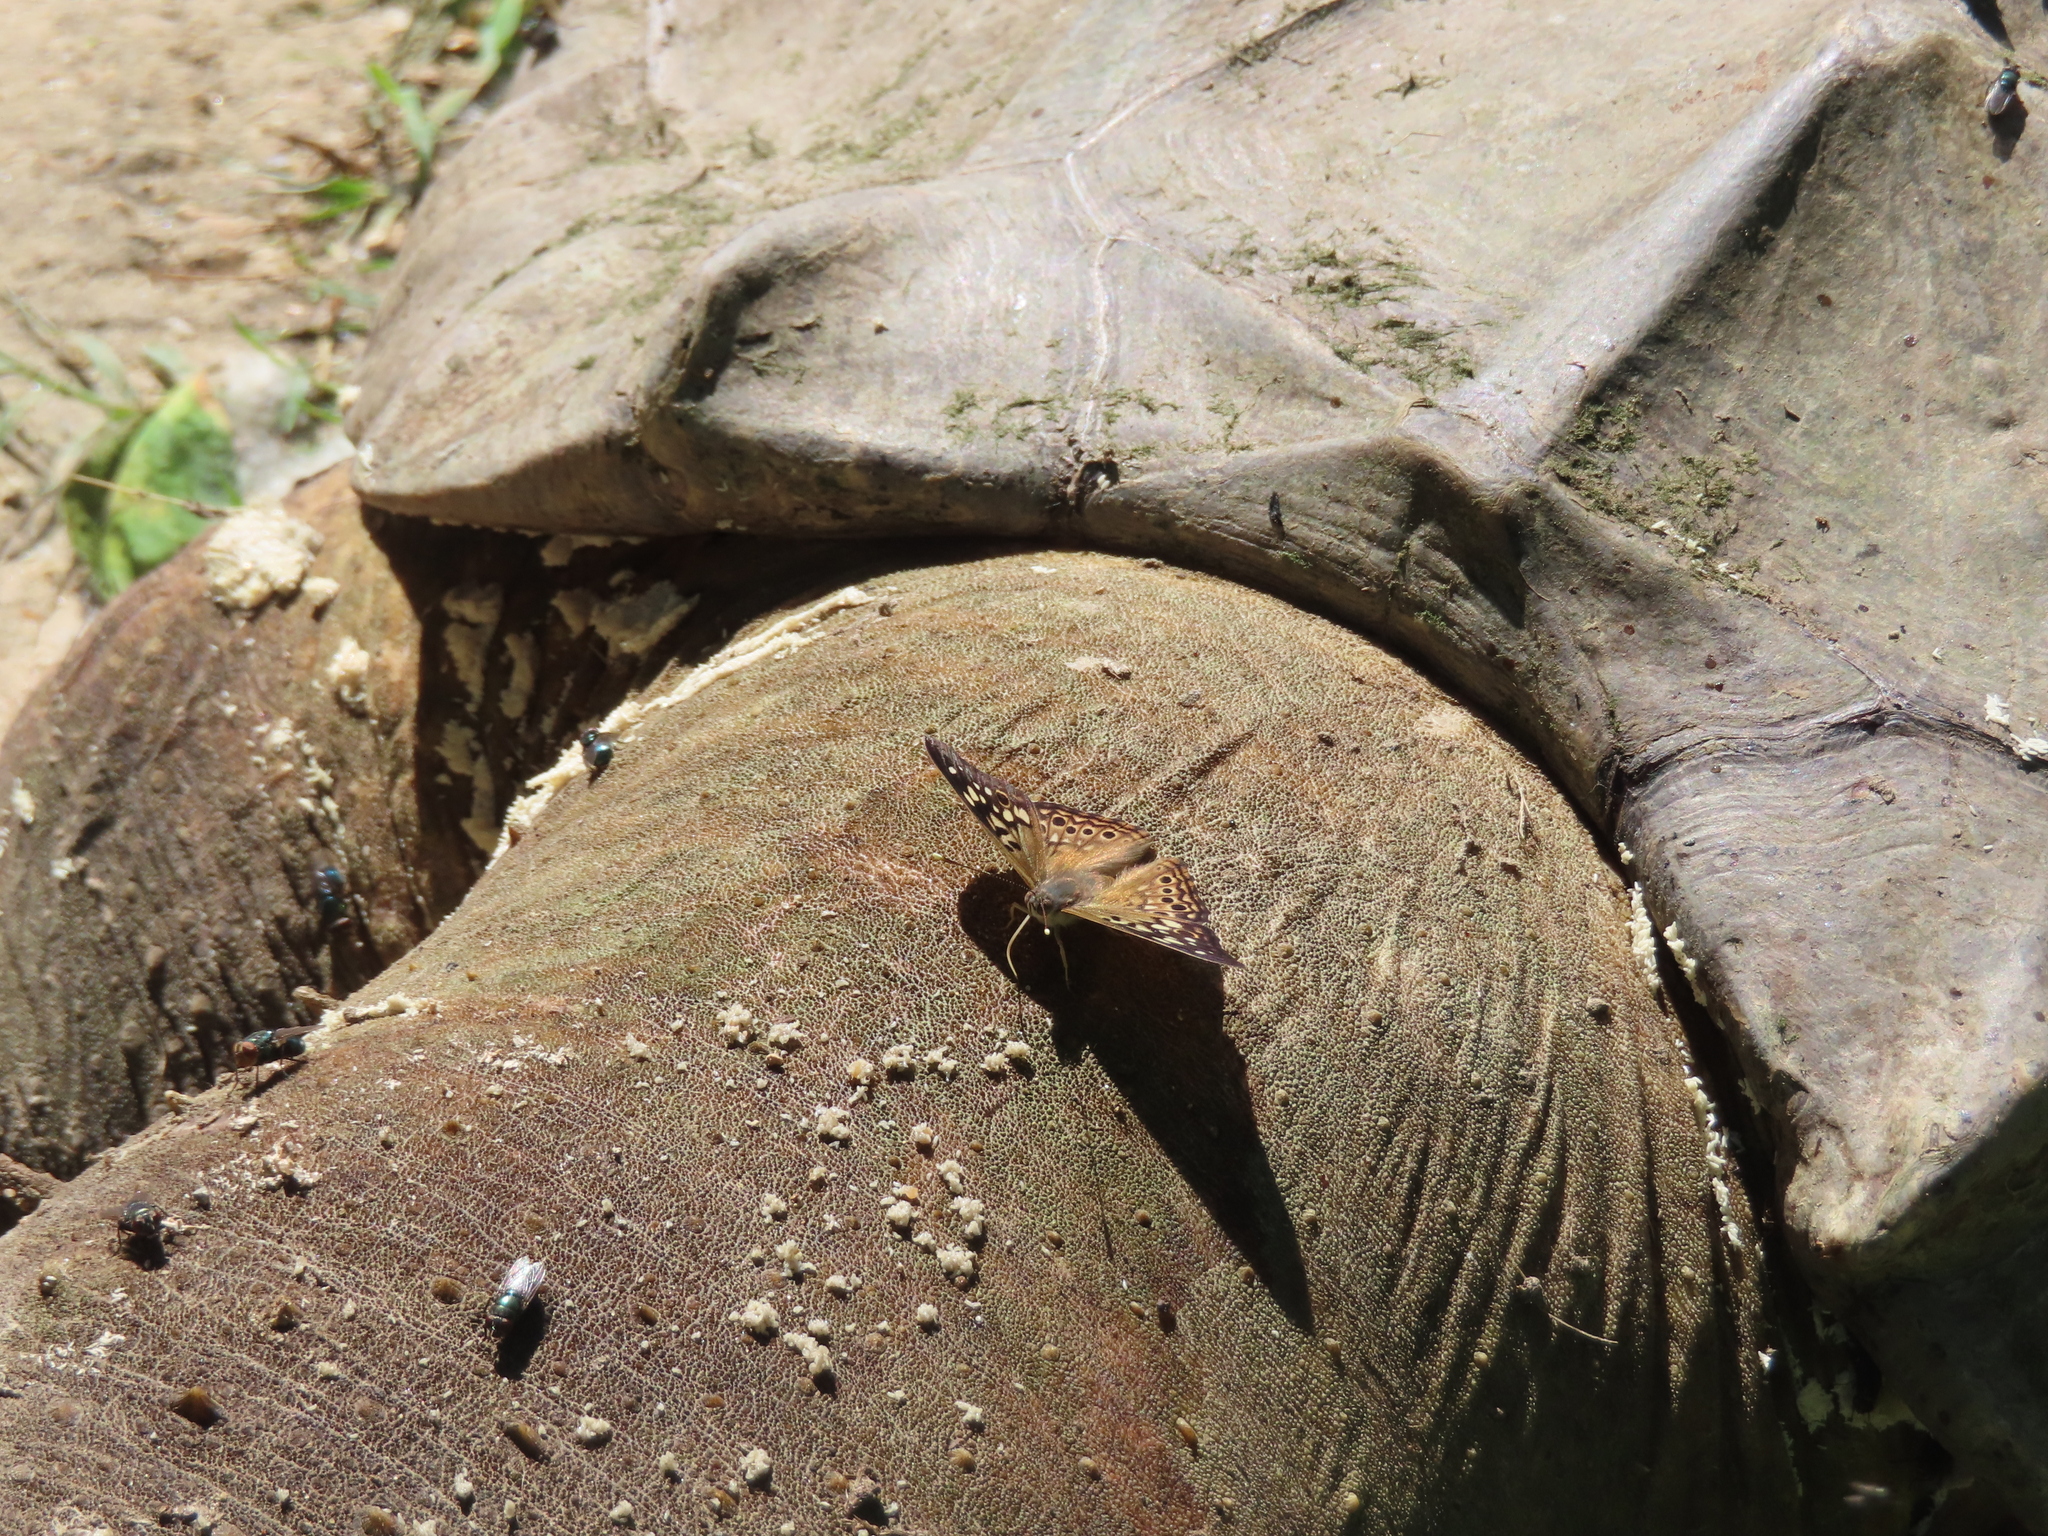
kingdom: Animalia
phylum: Arthropoda
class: Insecta
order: Lepidoptera
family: Nymphalidae
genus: Asterocampa
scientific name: Asterocampa celtis
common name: Hackberry emperor
